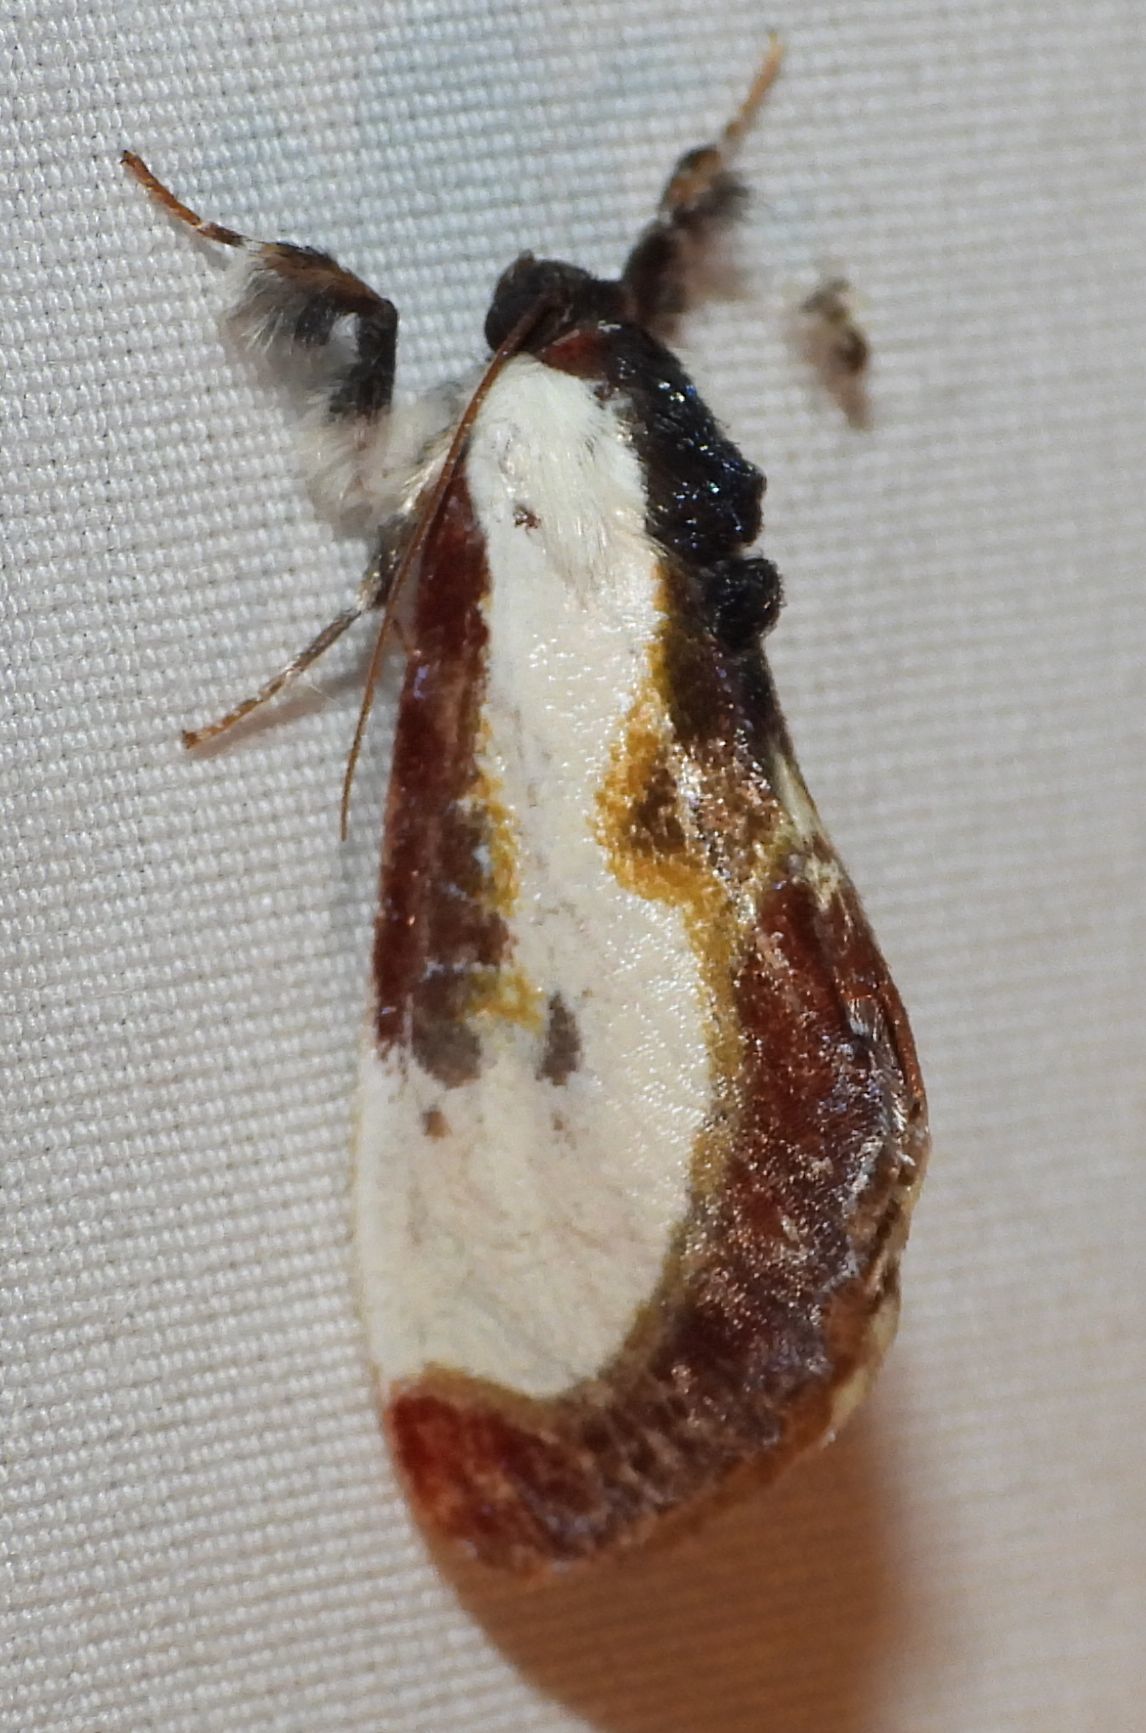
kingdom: Animalia
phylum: Arthropoda
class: Insecta
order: Lepidoptera
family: Noctuidae
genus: Eudryas
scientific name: Eudryas grata
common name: Beautiful wood-nymph
